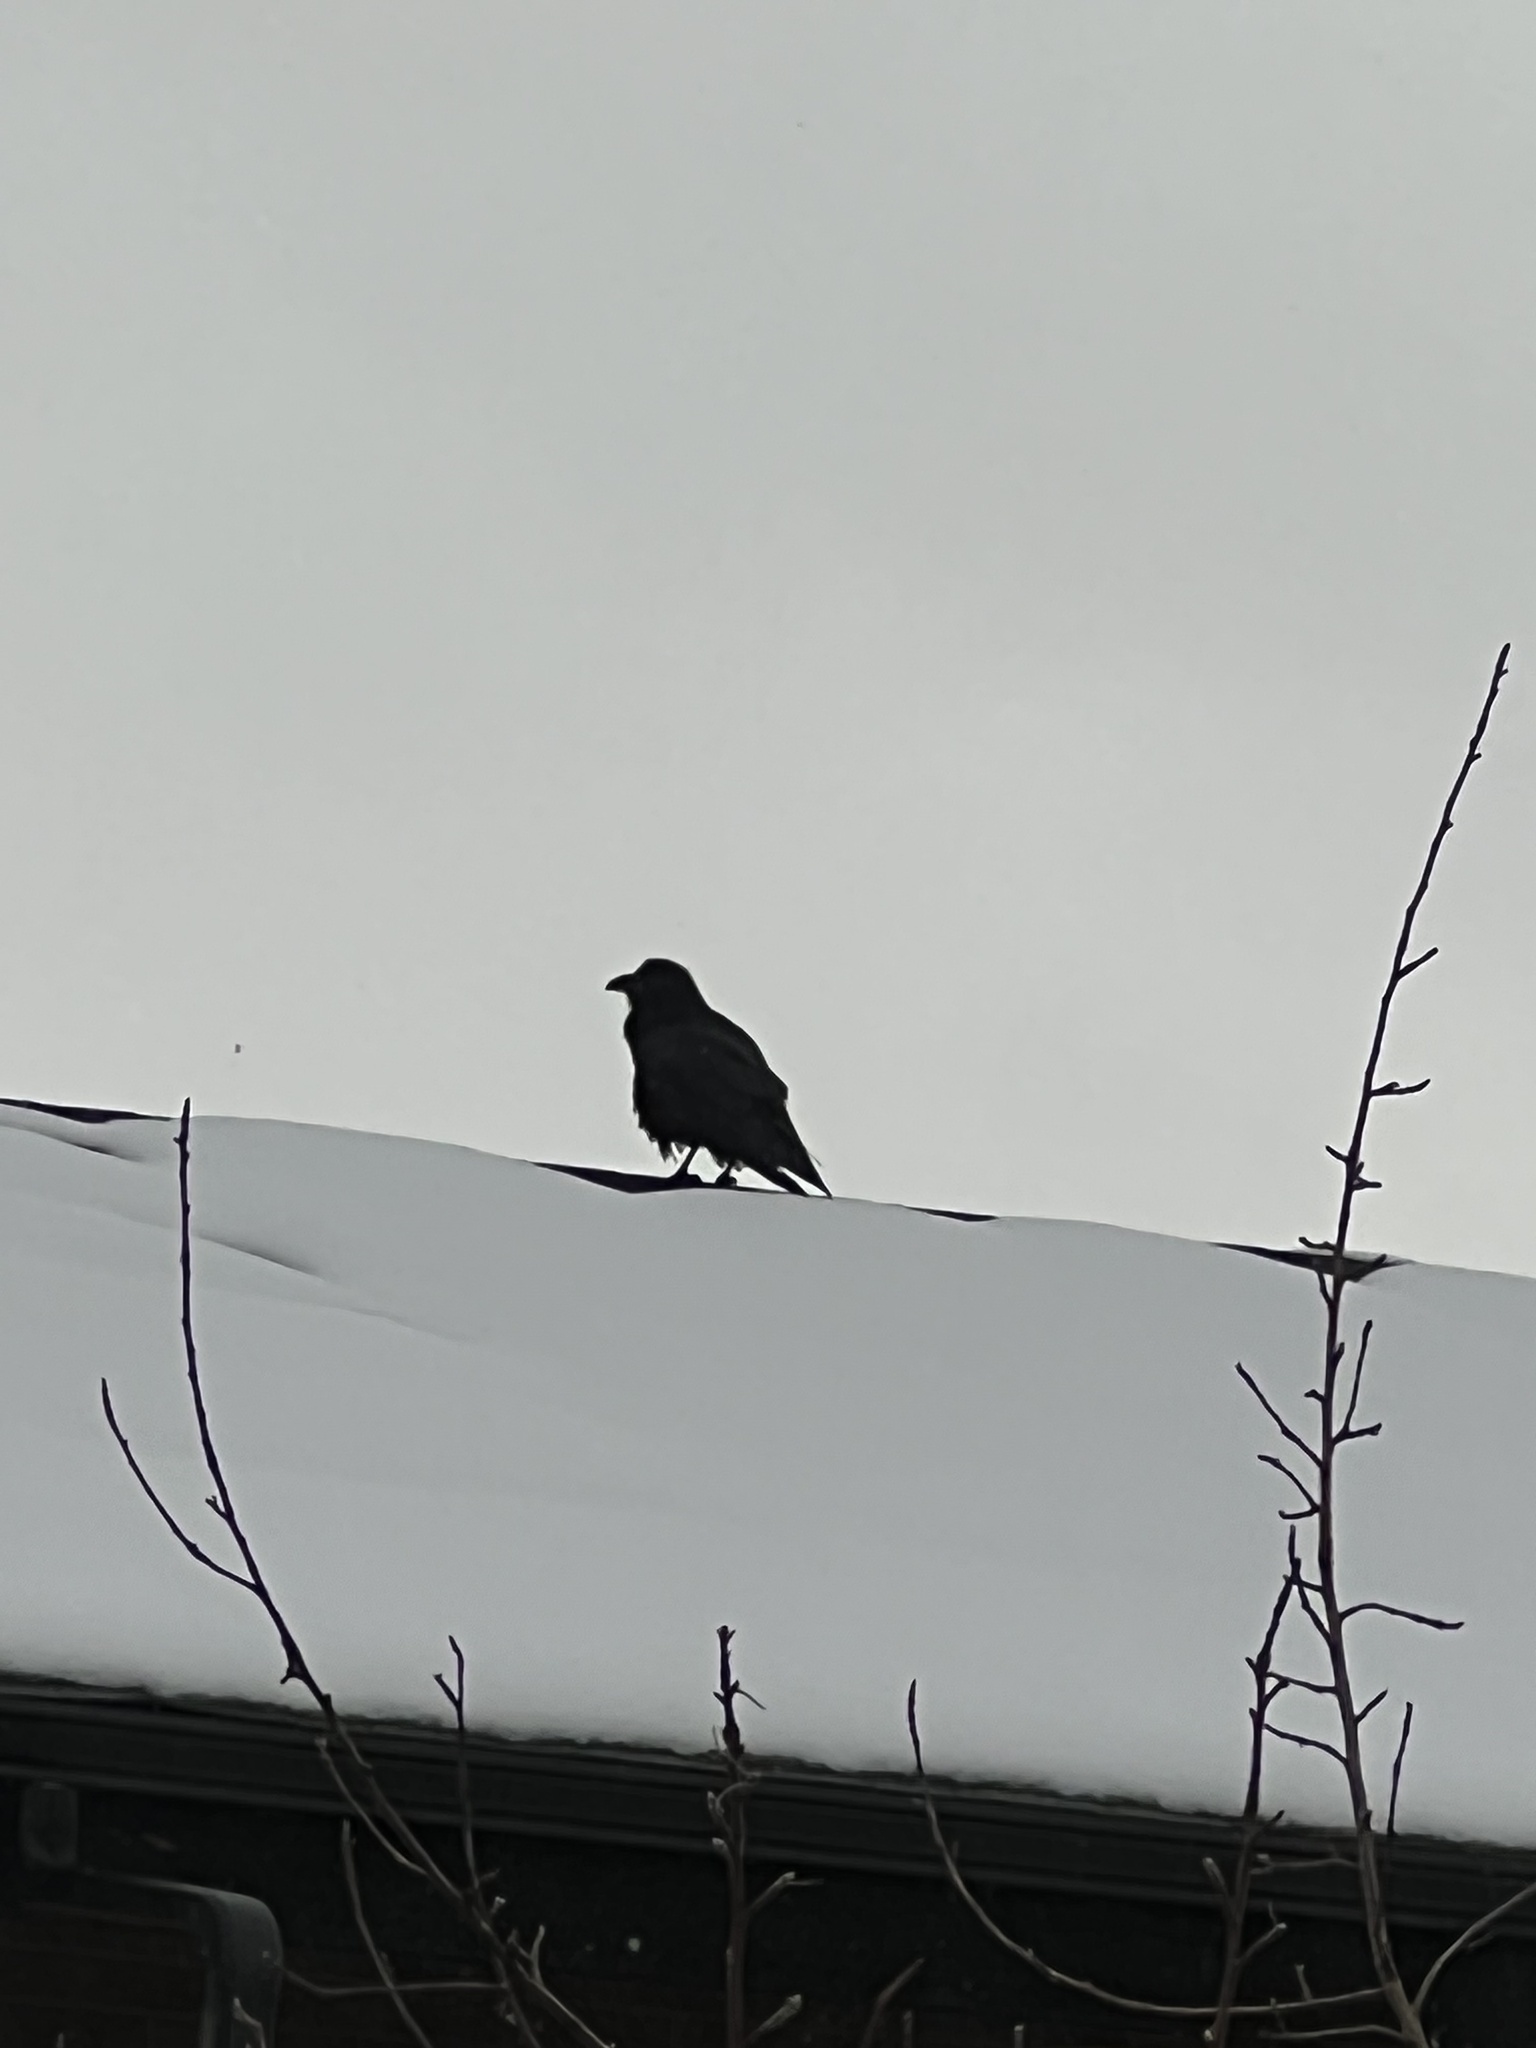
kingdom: Animalia
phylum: Chordata
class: Aves
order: Passeriformes
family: Corvidae
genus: Corvus
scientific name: Corvus corax
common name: Common raven
